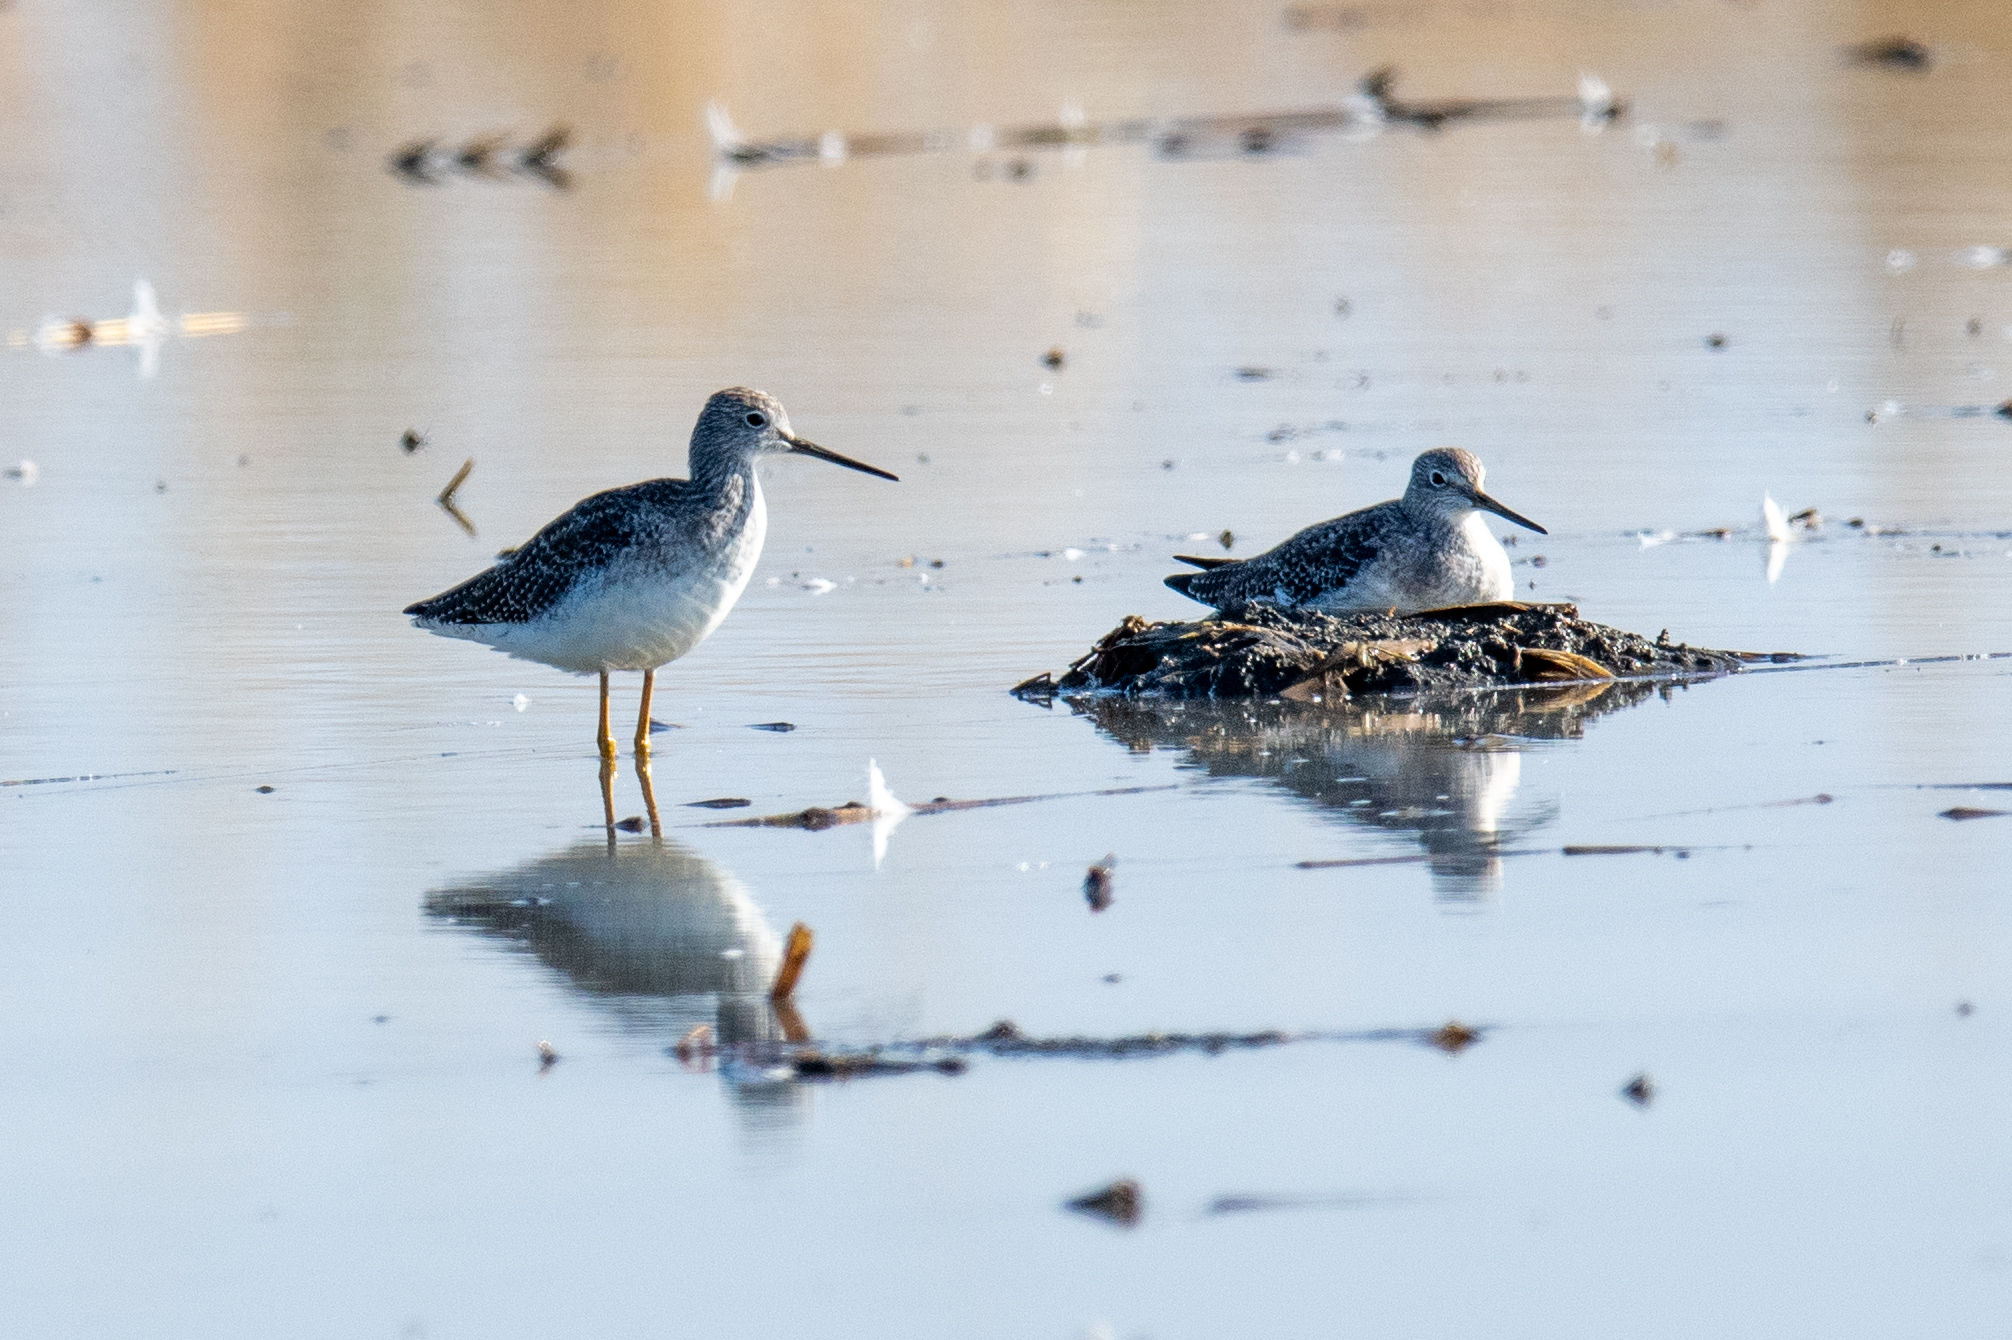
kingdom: Animalia
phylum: Chordata
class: Aves
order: Charadriiformes
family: Scolopacidae
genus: Tringa
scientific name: Tringa melanoleuca
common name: Greater yellowlegs
